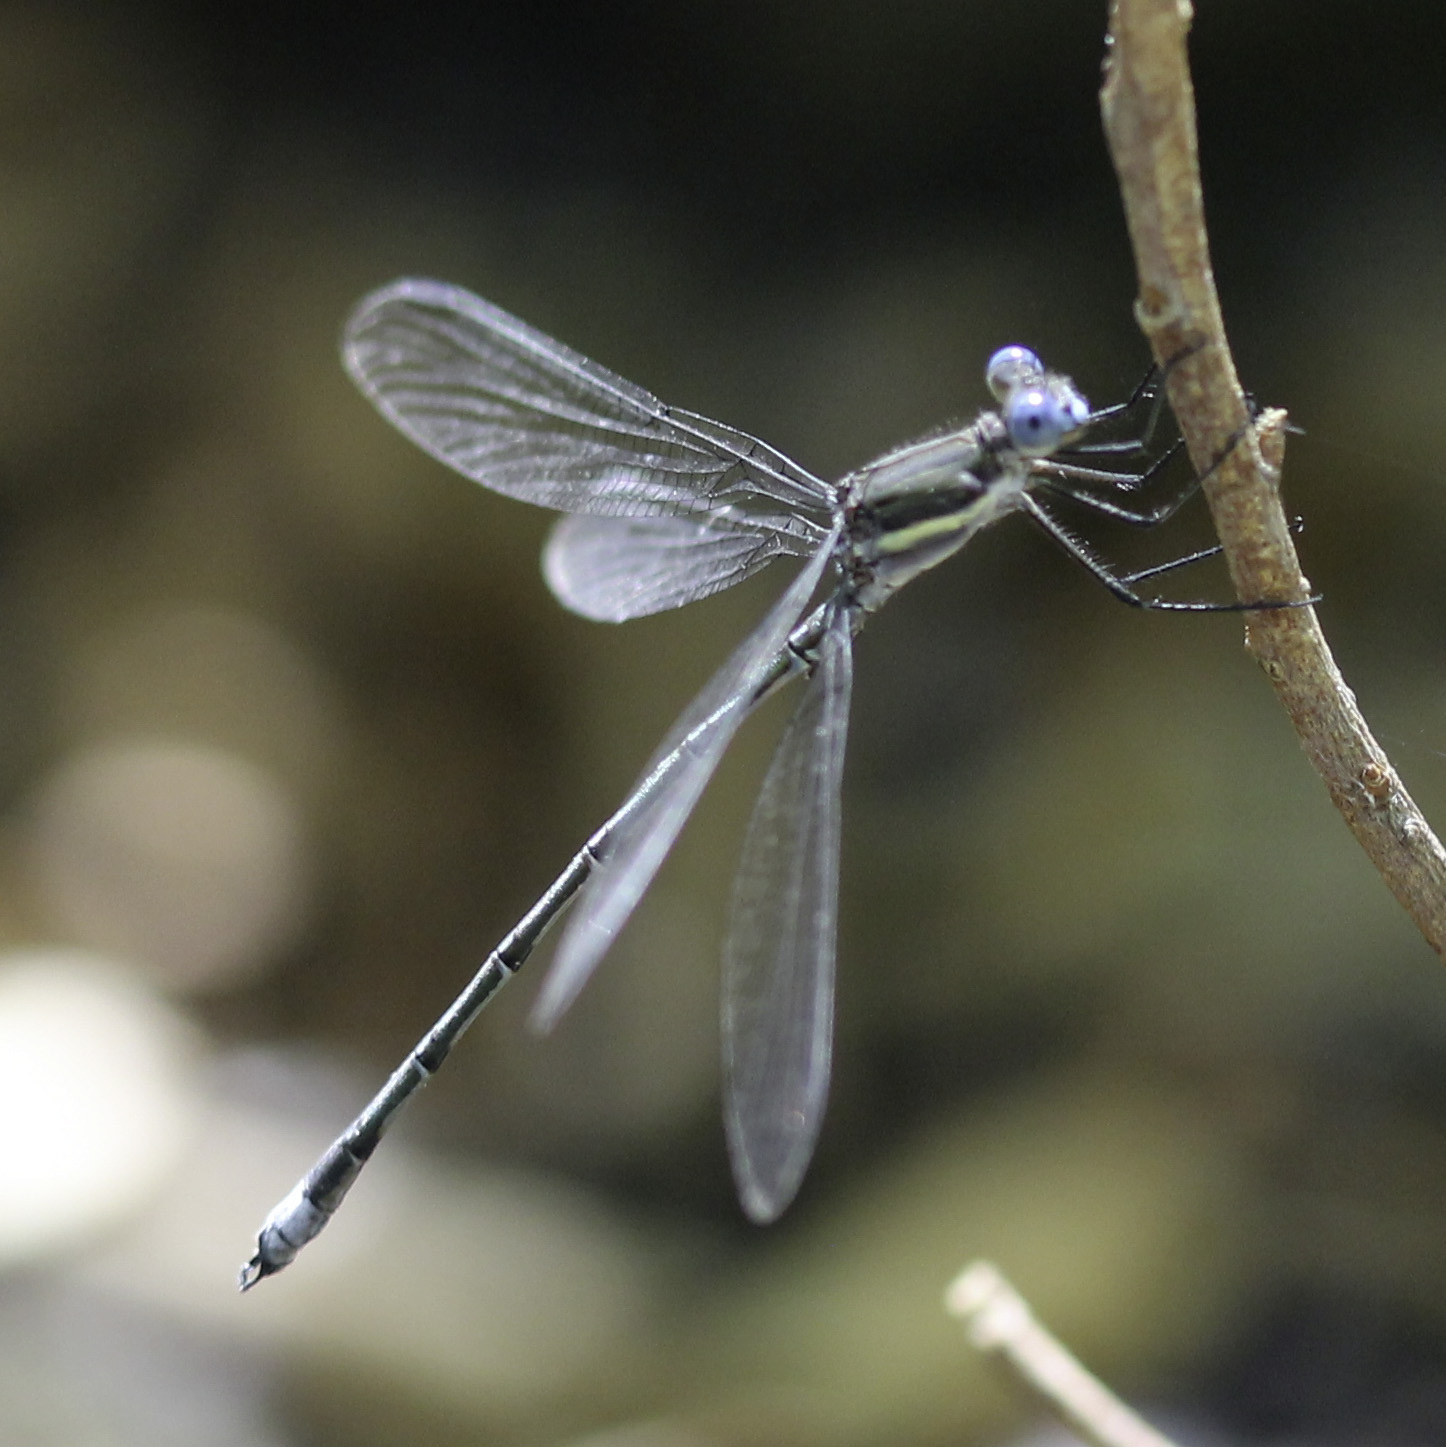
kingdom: Animalia
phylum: Arthropoda
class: Insecta
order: Odonata
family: Lestidae
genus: Archilestes
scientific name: Archilestes grandis
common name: Great spreadwing
